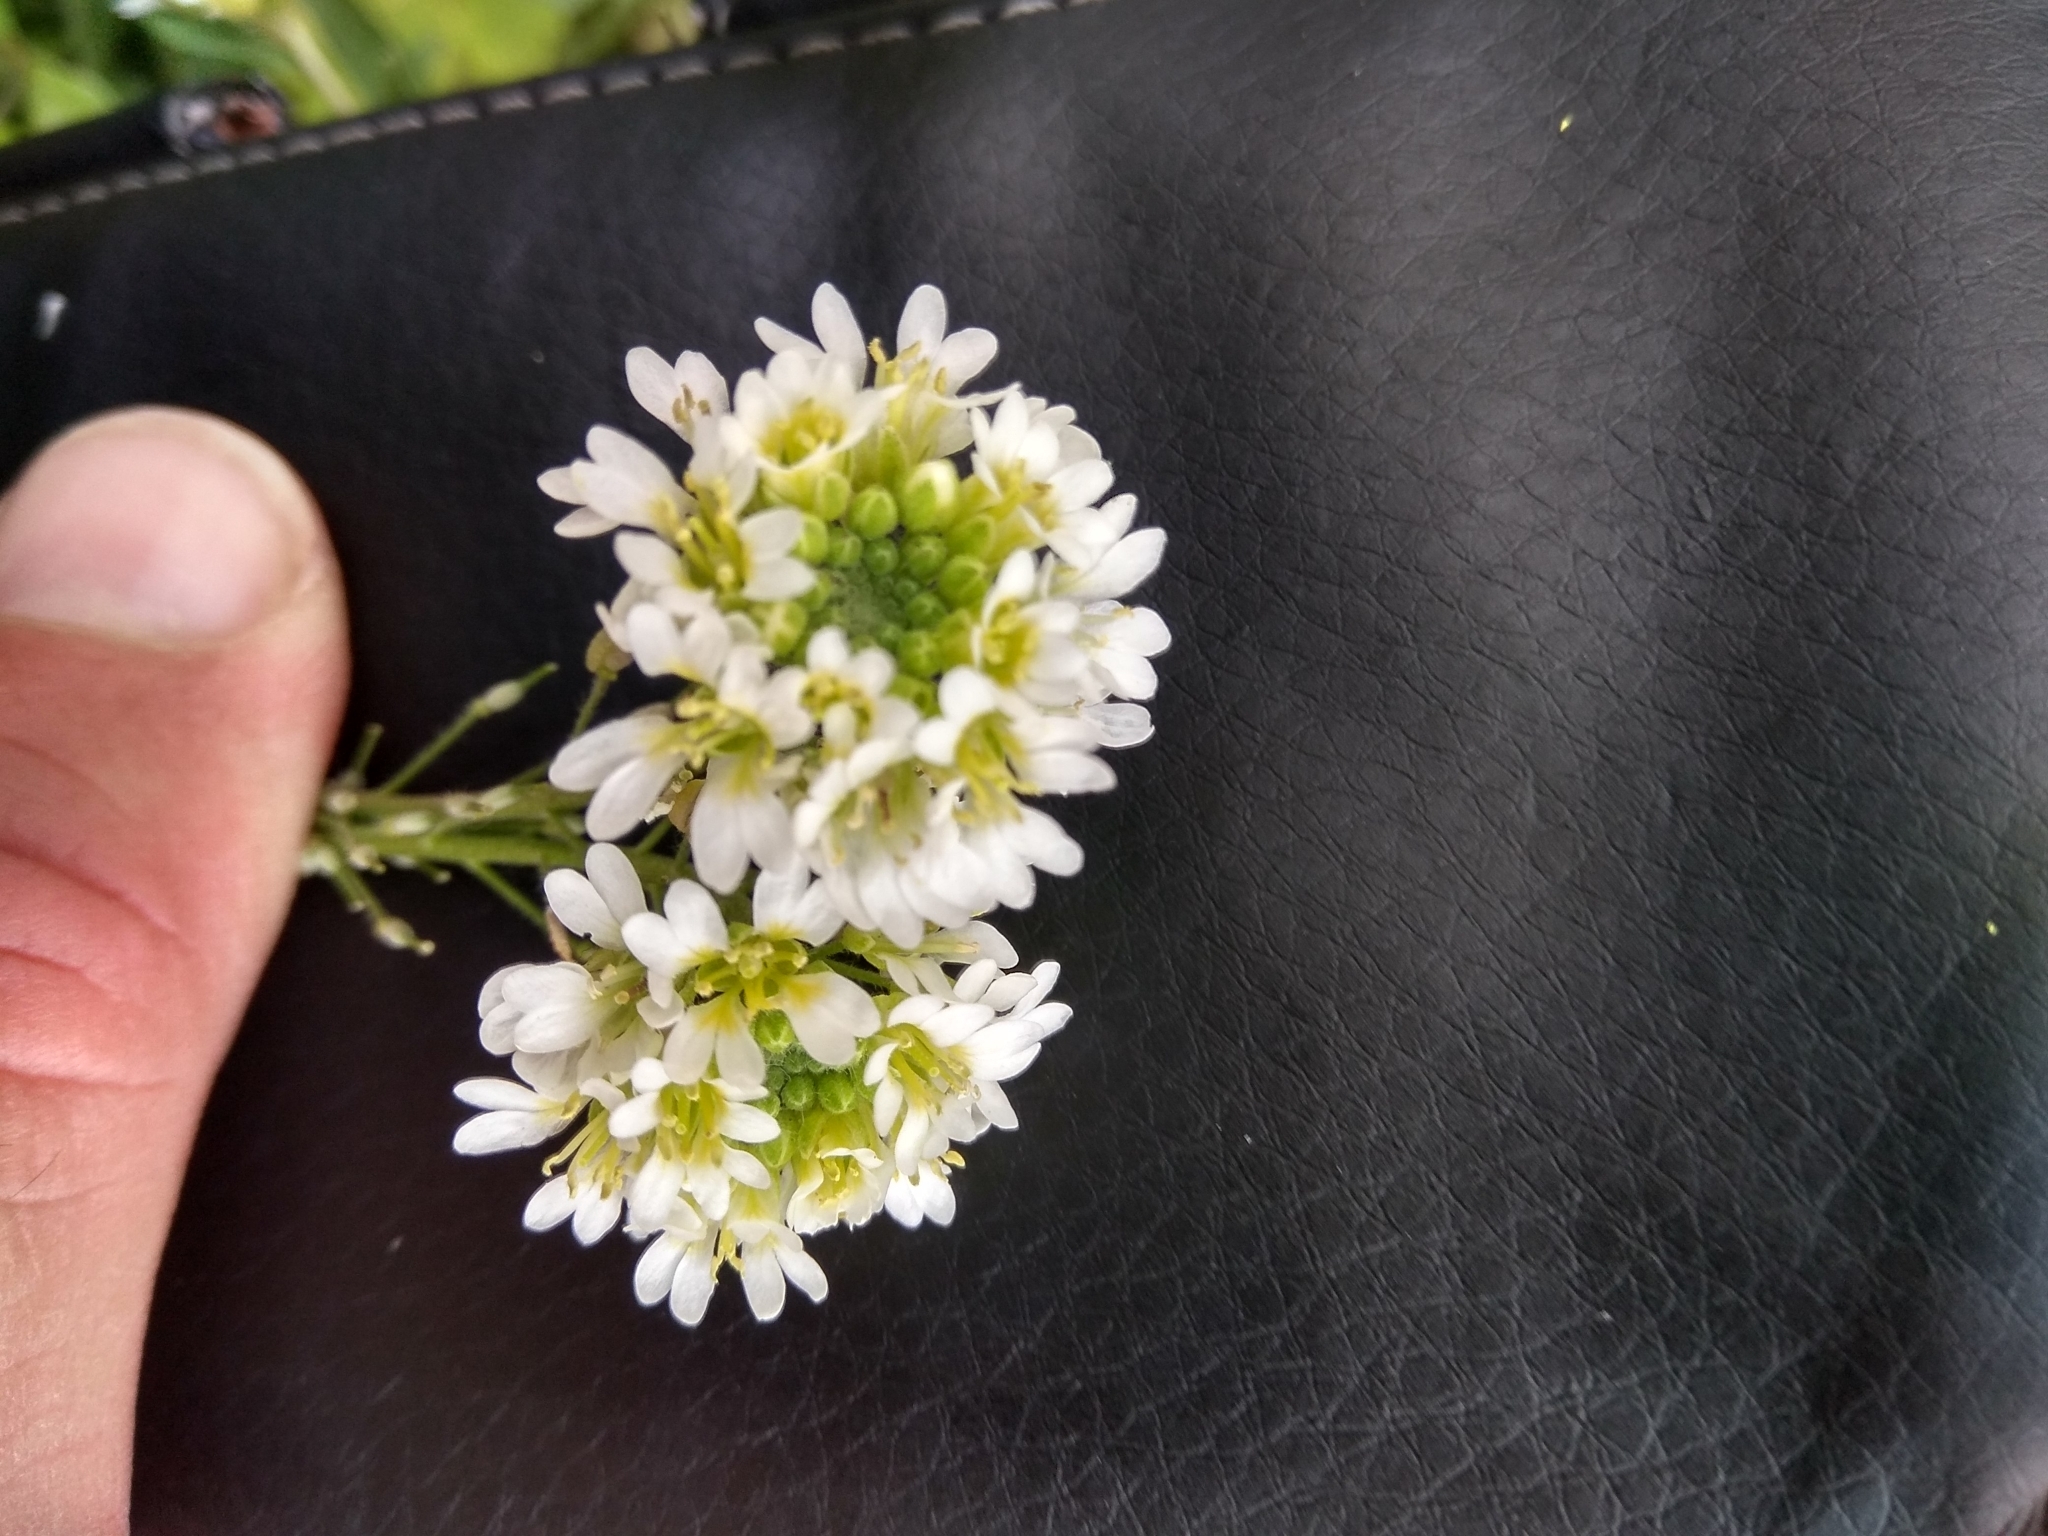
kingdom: Plantae
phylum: Tracheophyta
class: Magnoliopsida
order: Brassicales
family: Brassicaceae
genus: Berteroa
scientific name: Berteroa incana
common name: Hoary alison
